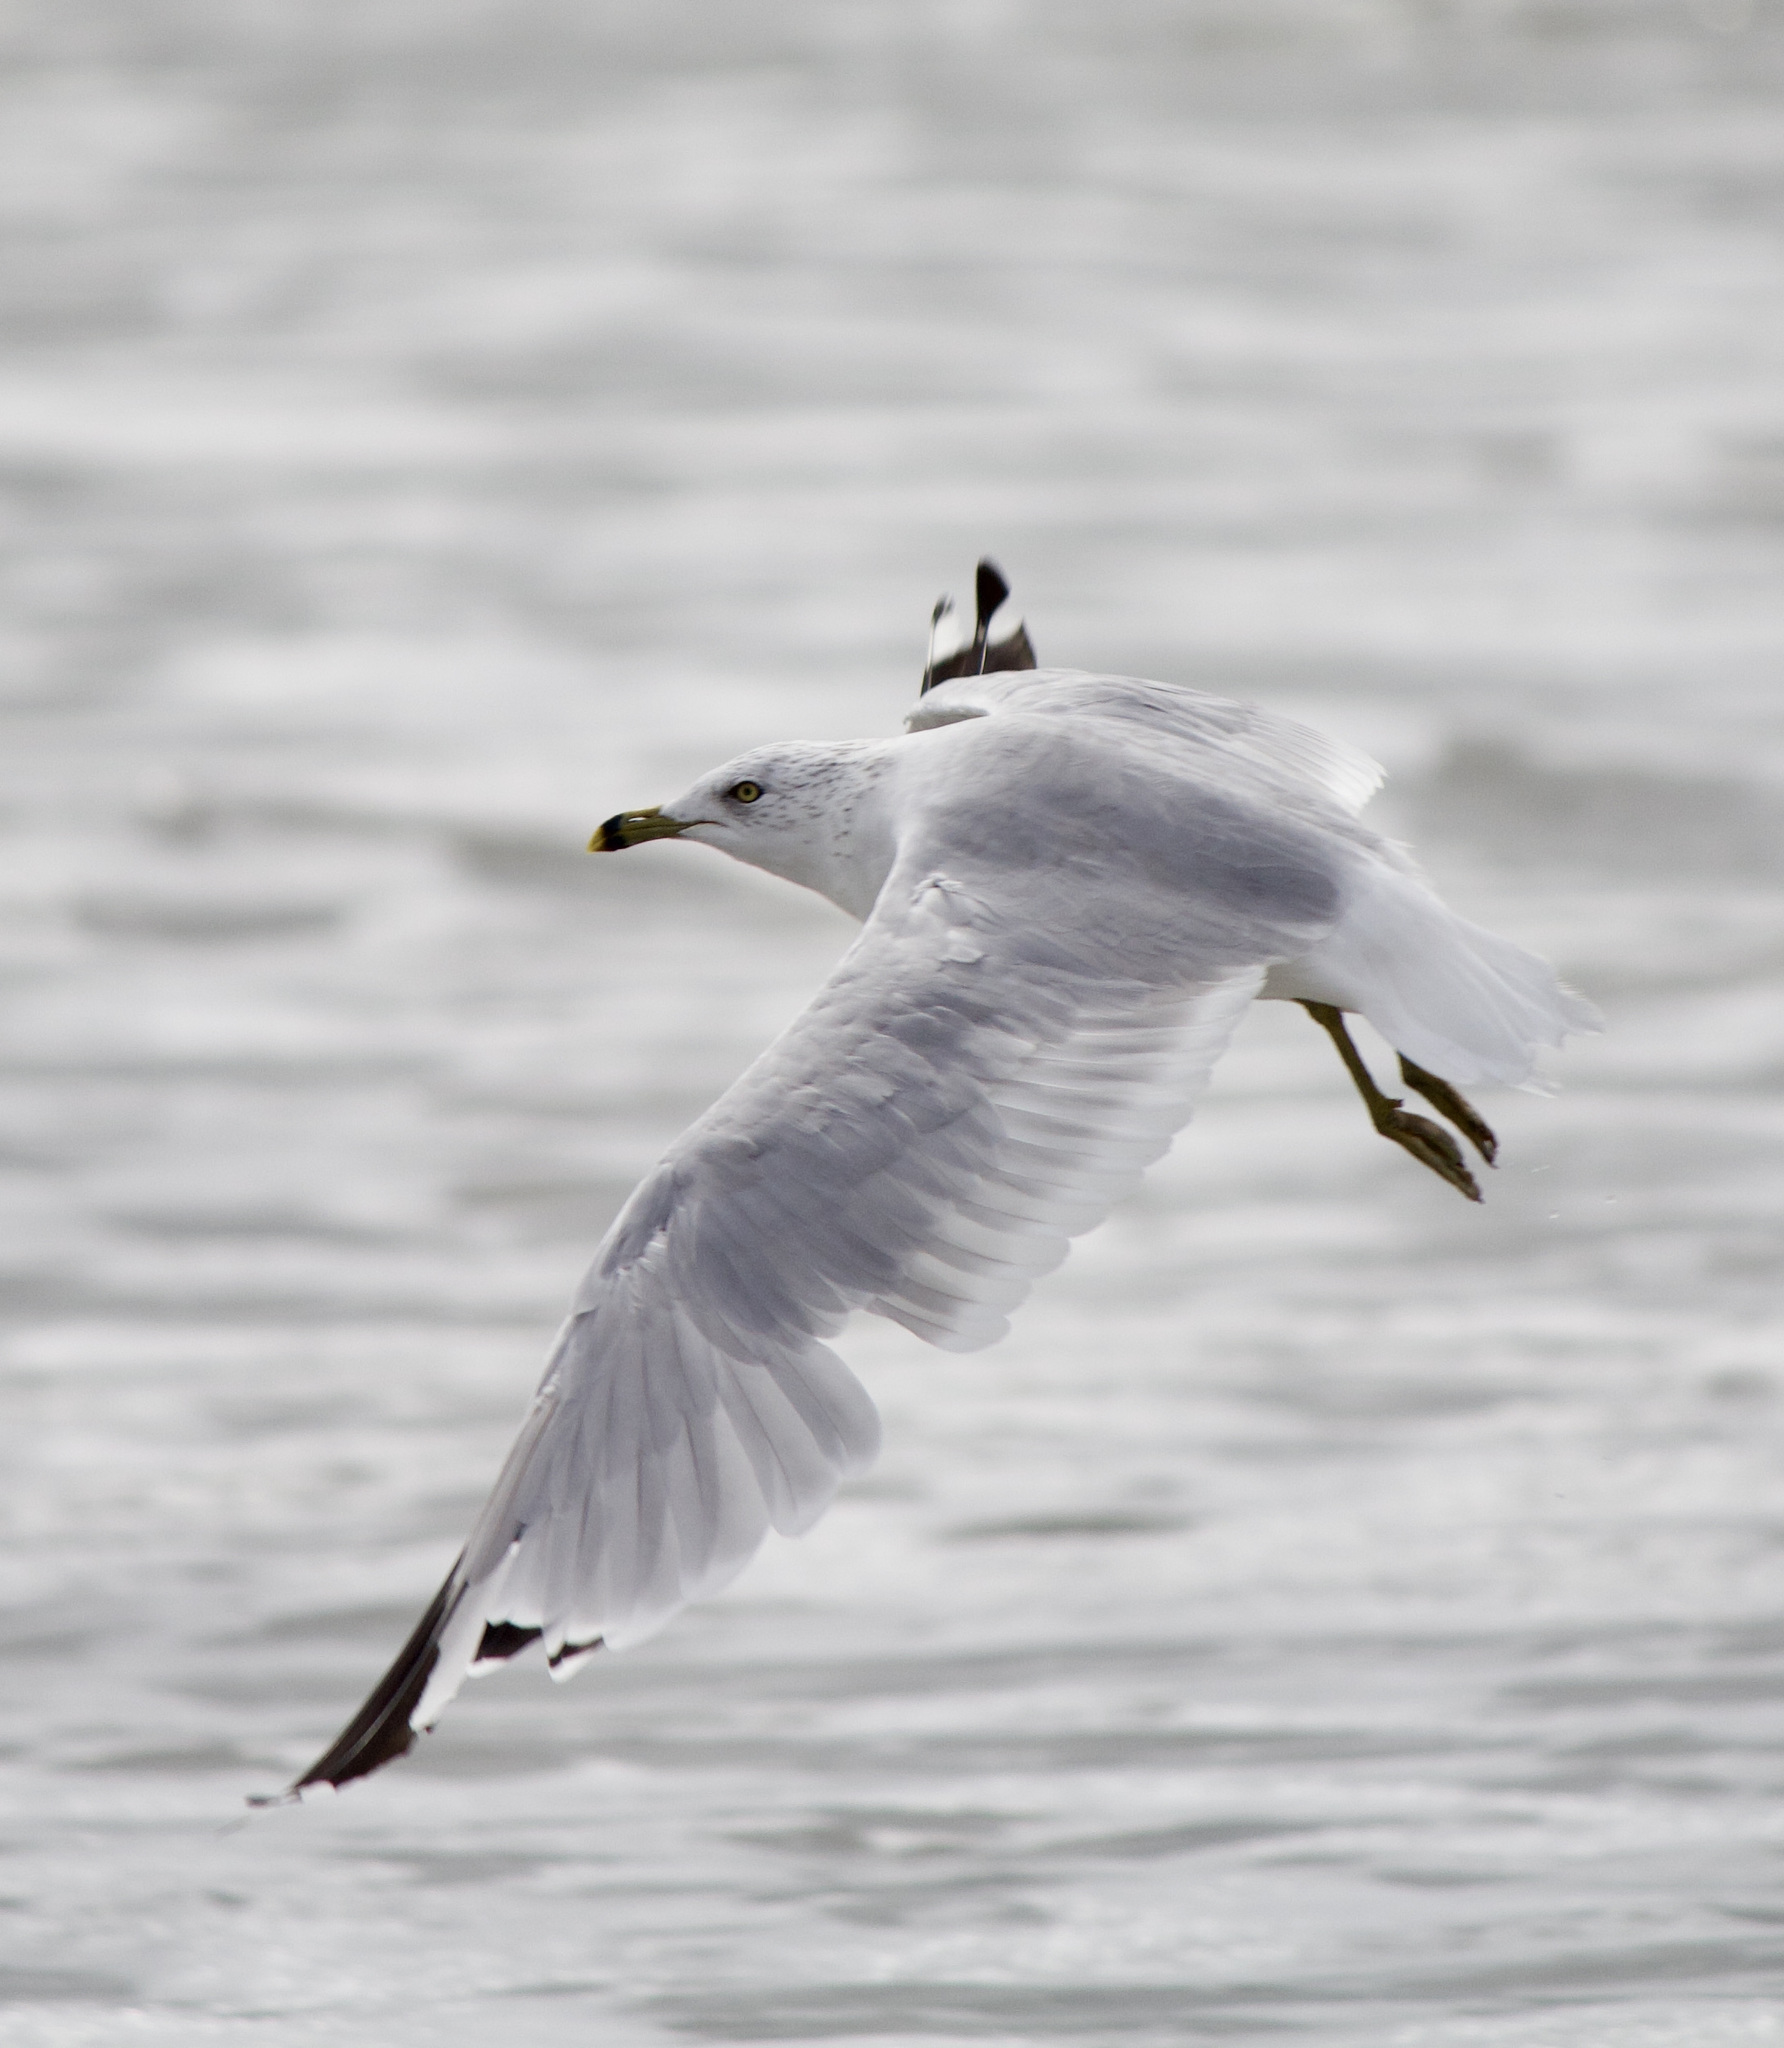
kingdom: Animalia
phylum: Chordata
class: Aves
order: Charadriiformes
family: Laridae
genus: Larus
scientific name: Larus delawarensis
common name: Ring-billed gull
